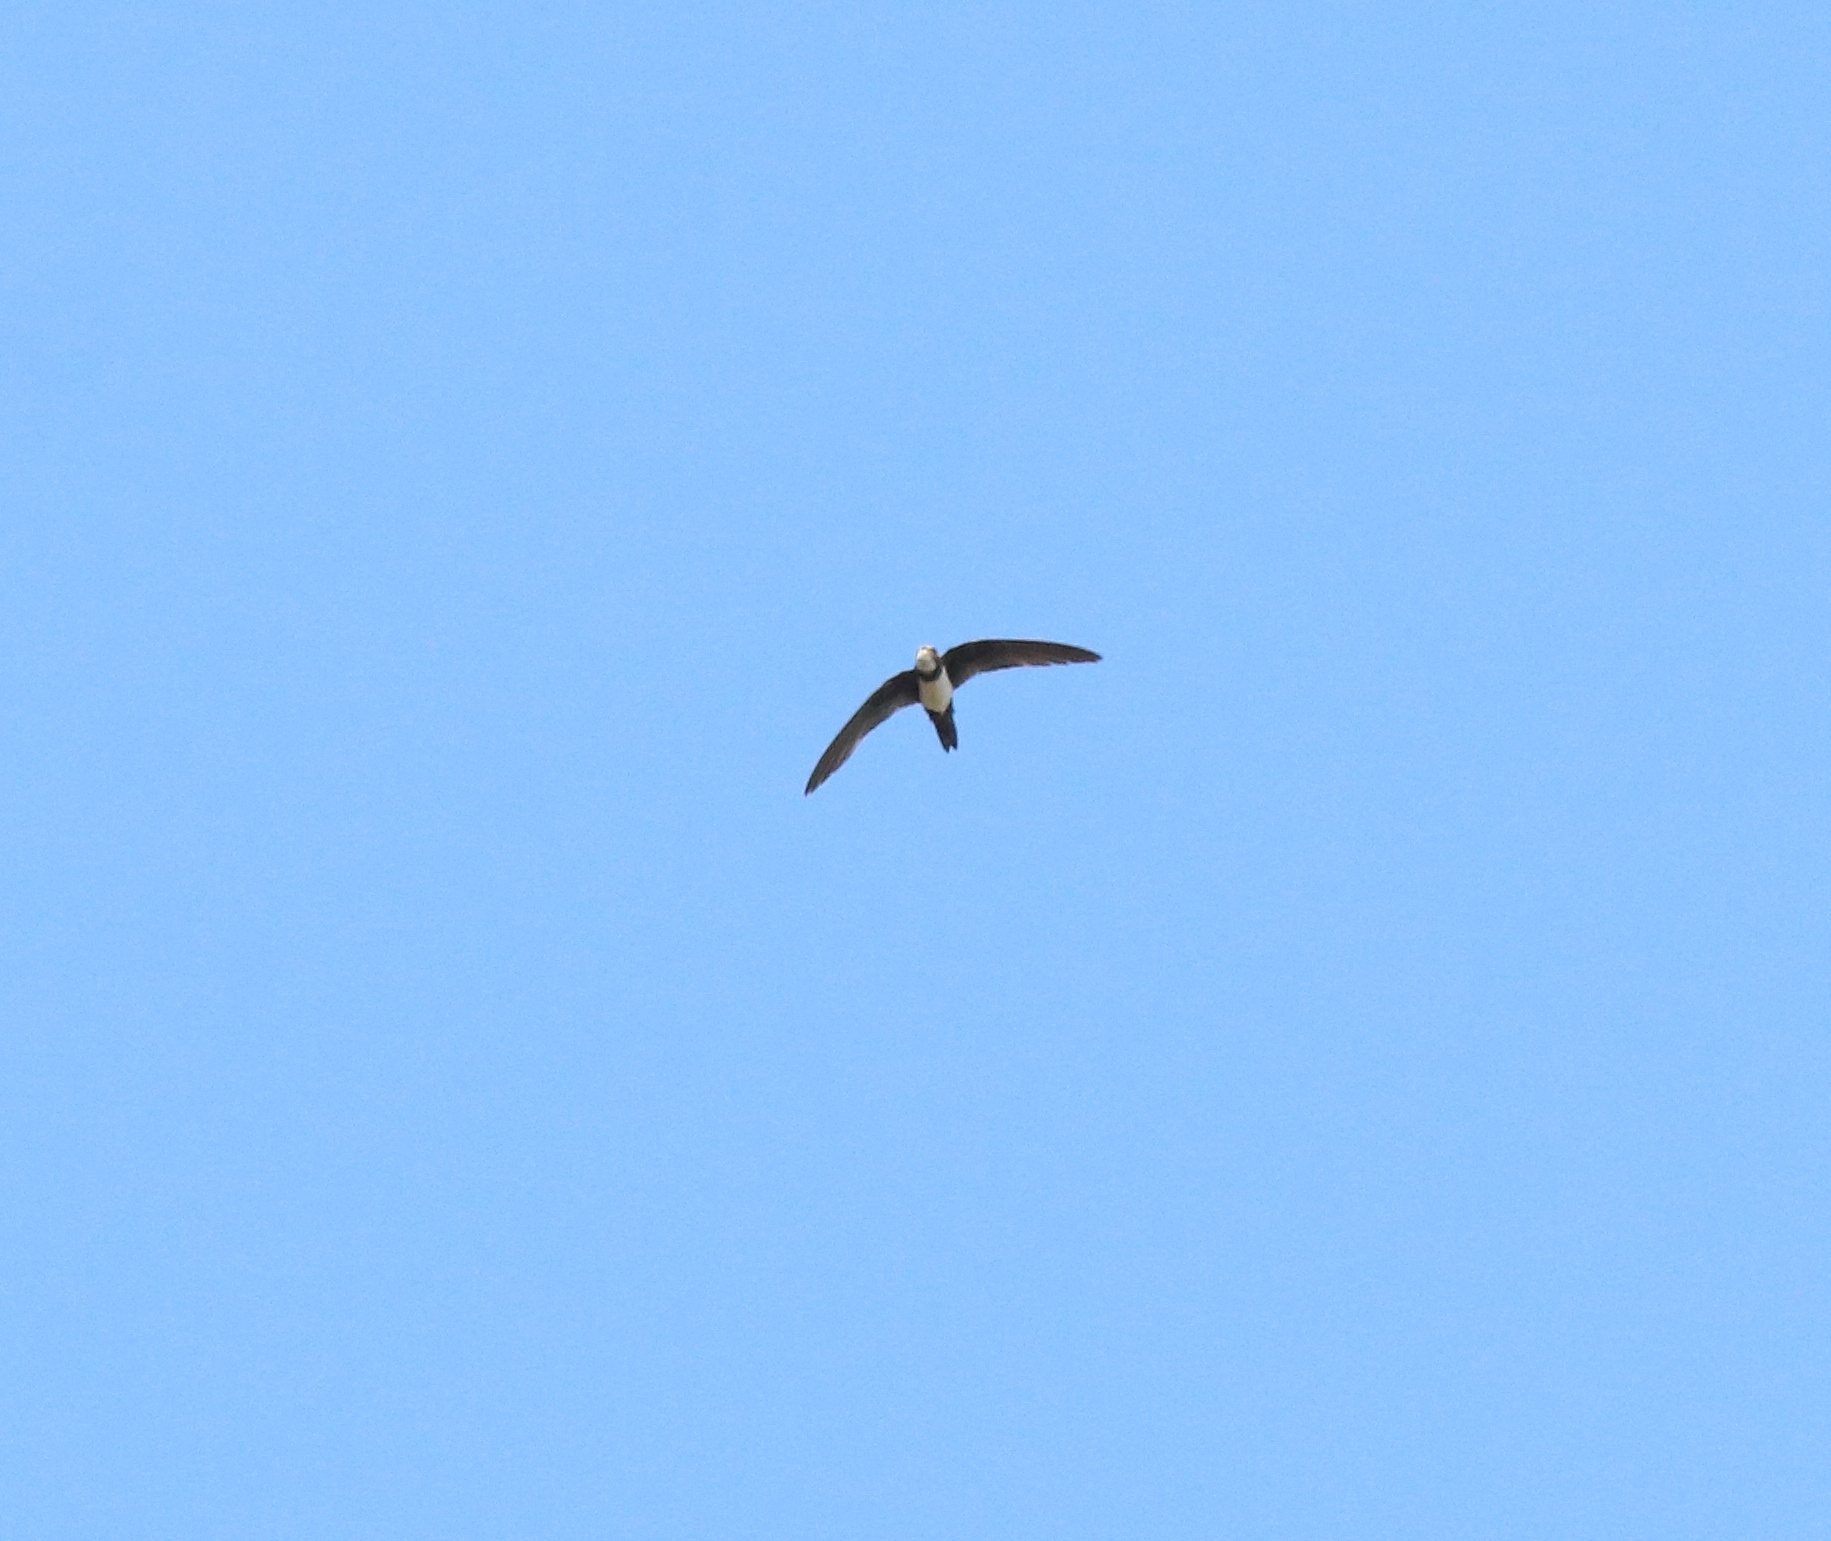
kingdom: Animalia
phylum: Chordata
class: Aves
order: Apodiformes
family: Apodidae
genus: Tachymarptis
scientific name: Tachymarptis melba
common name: Alpine swift
